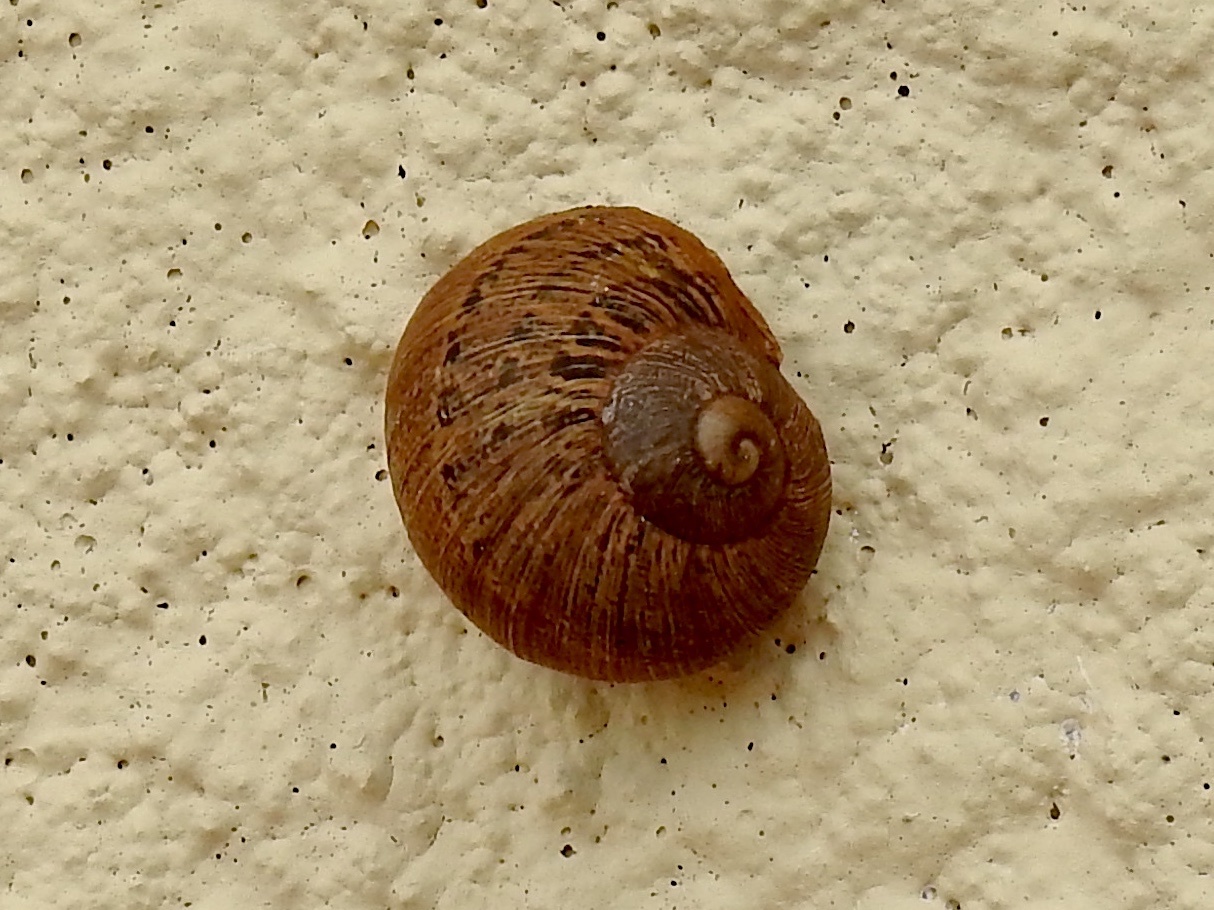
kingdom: Animalia
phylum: Mollusca
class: Gastropoda
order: Stylommatophora
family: Helicidae
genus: Cornu
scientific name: Cornu aspersum
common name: Brown garden snail
